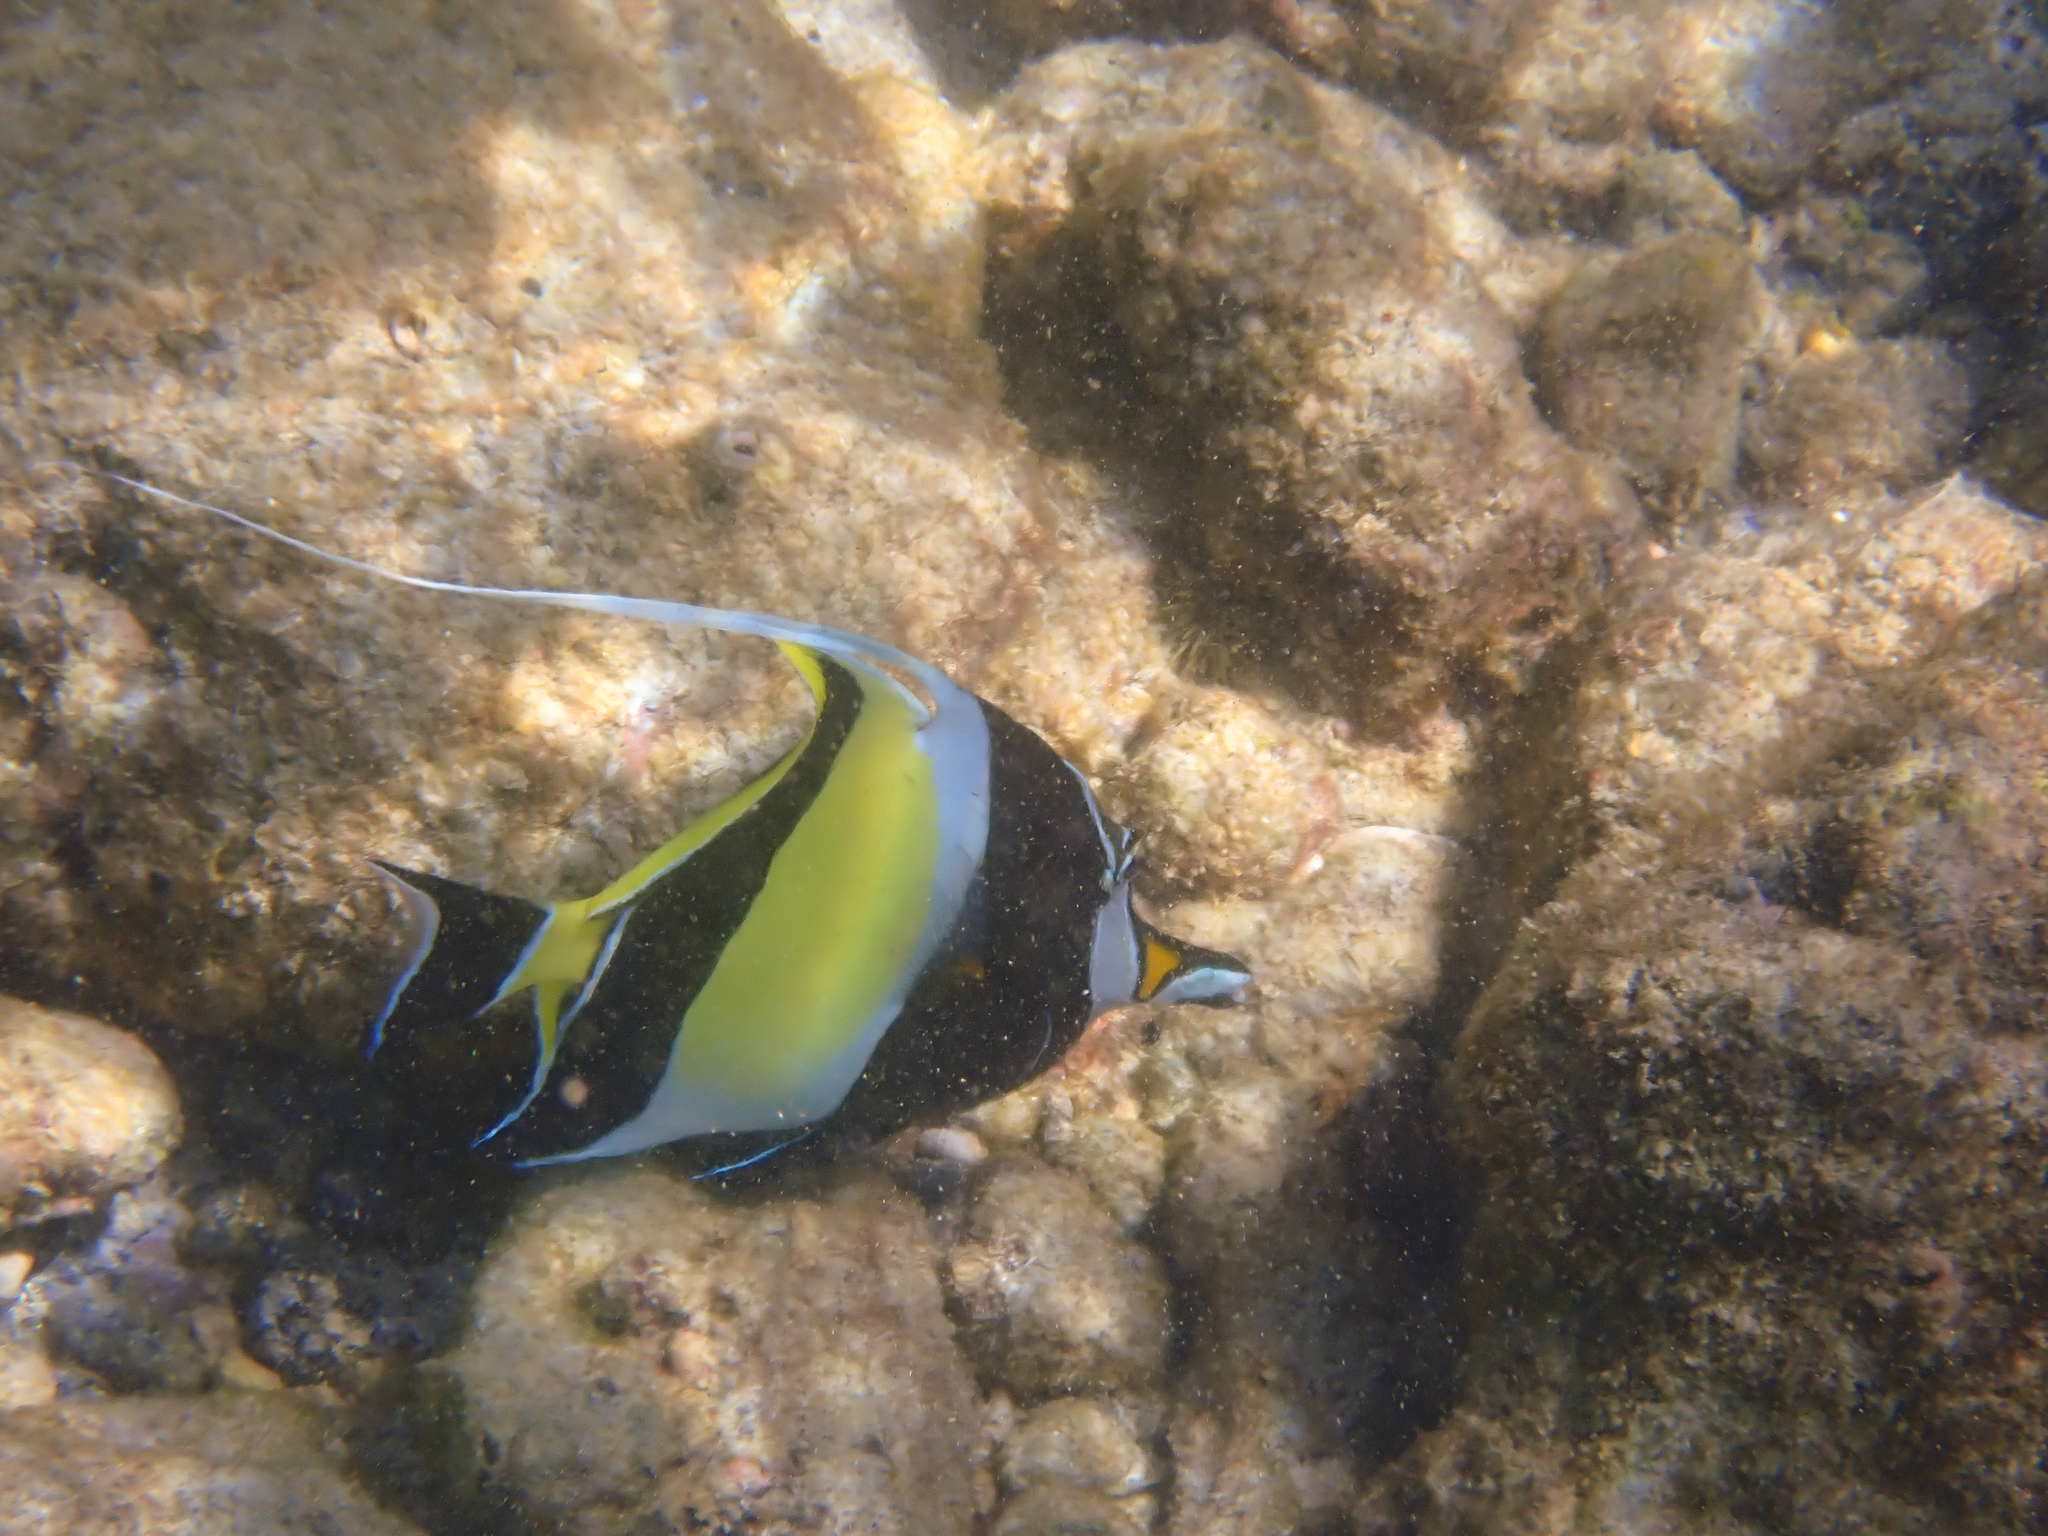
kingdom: Animalia
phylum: Chordata
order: Perciformes
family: Zanclidae
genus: Zanclus
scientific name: Zanclus cornutus
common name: Moorish idol
